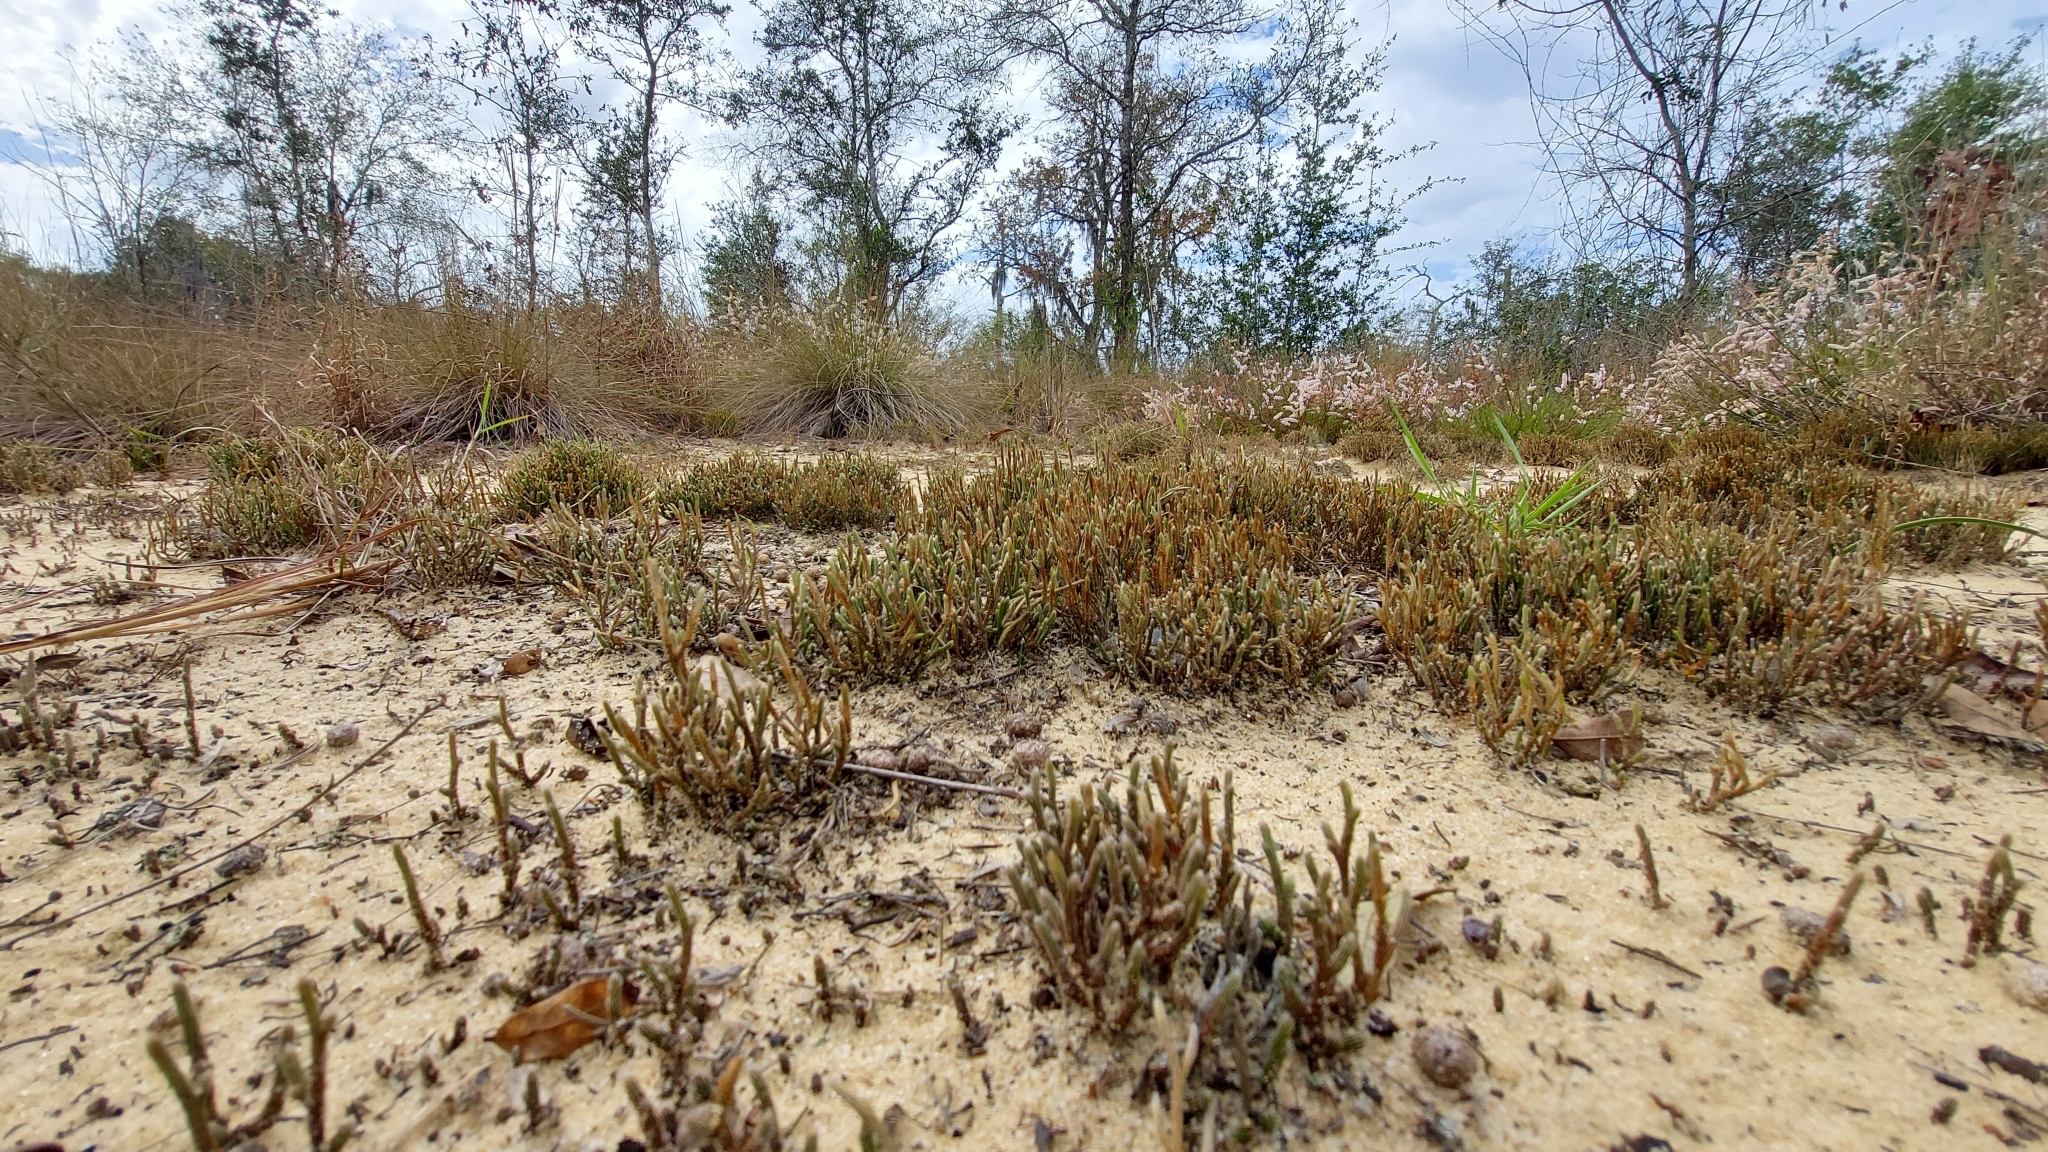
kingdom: Plantae
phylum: Tracheophyta
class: Lycopodiopsida
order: Selaginellales
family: Selaginellaceae
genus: Selaginella
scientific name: Selaginella arenicola
